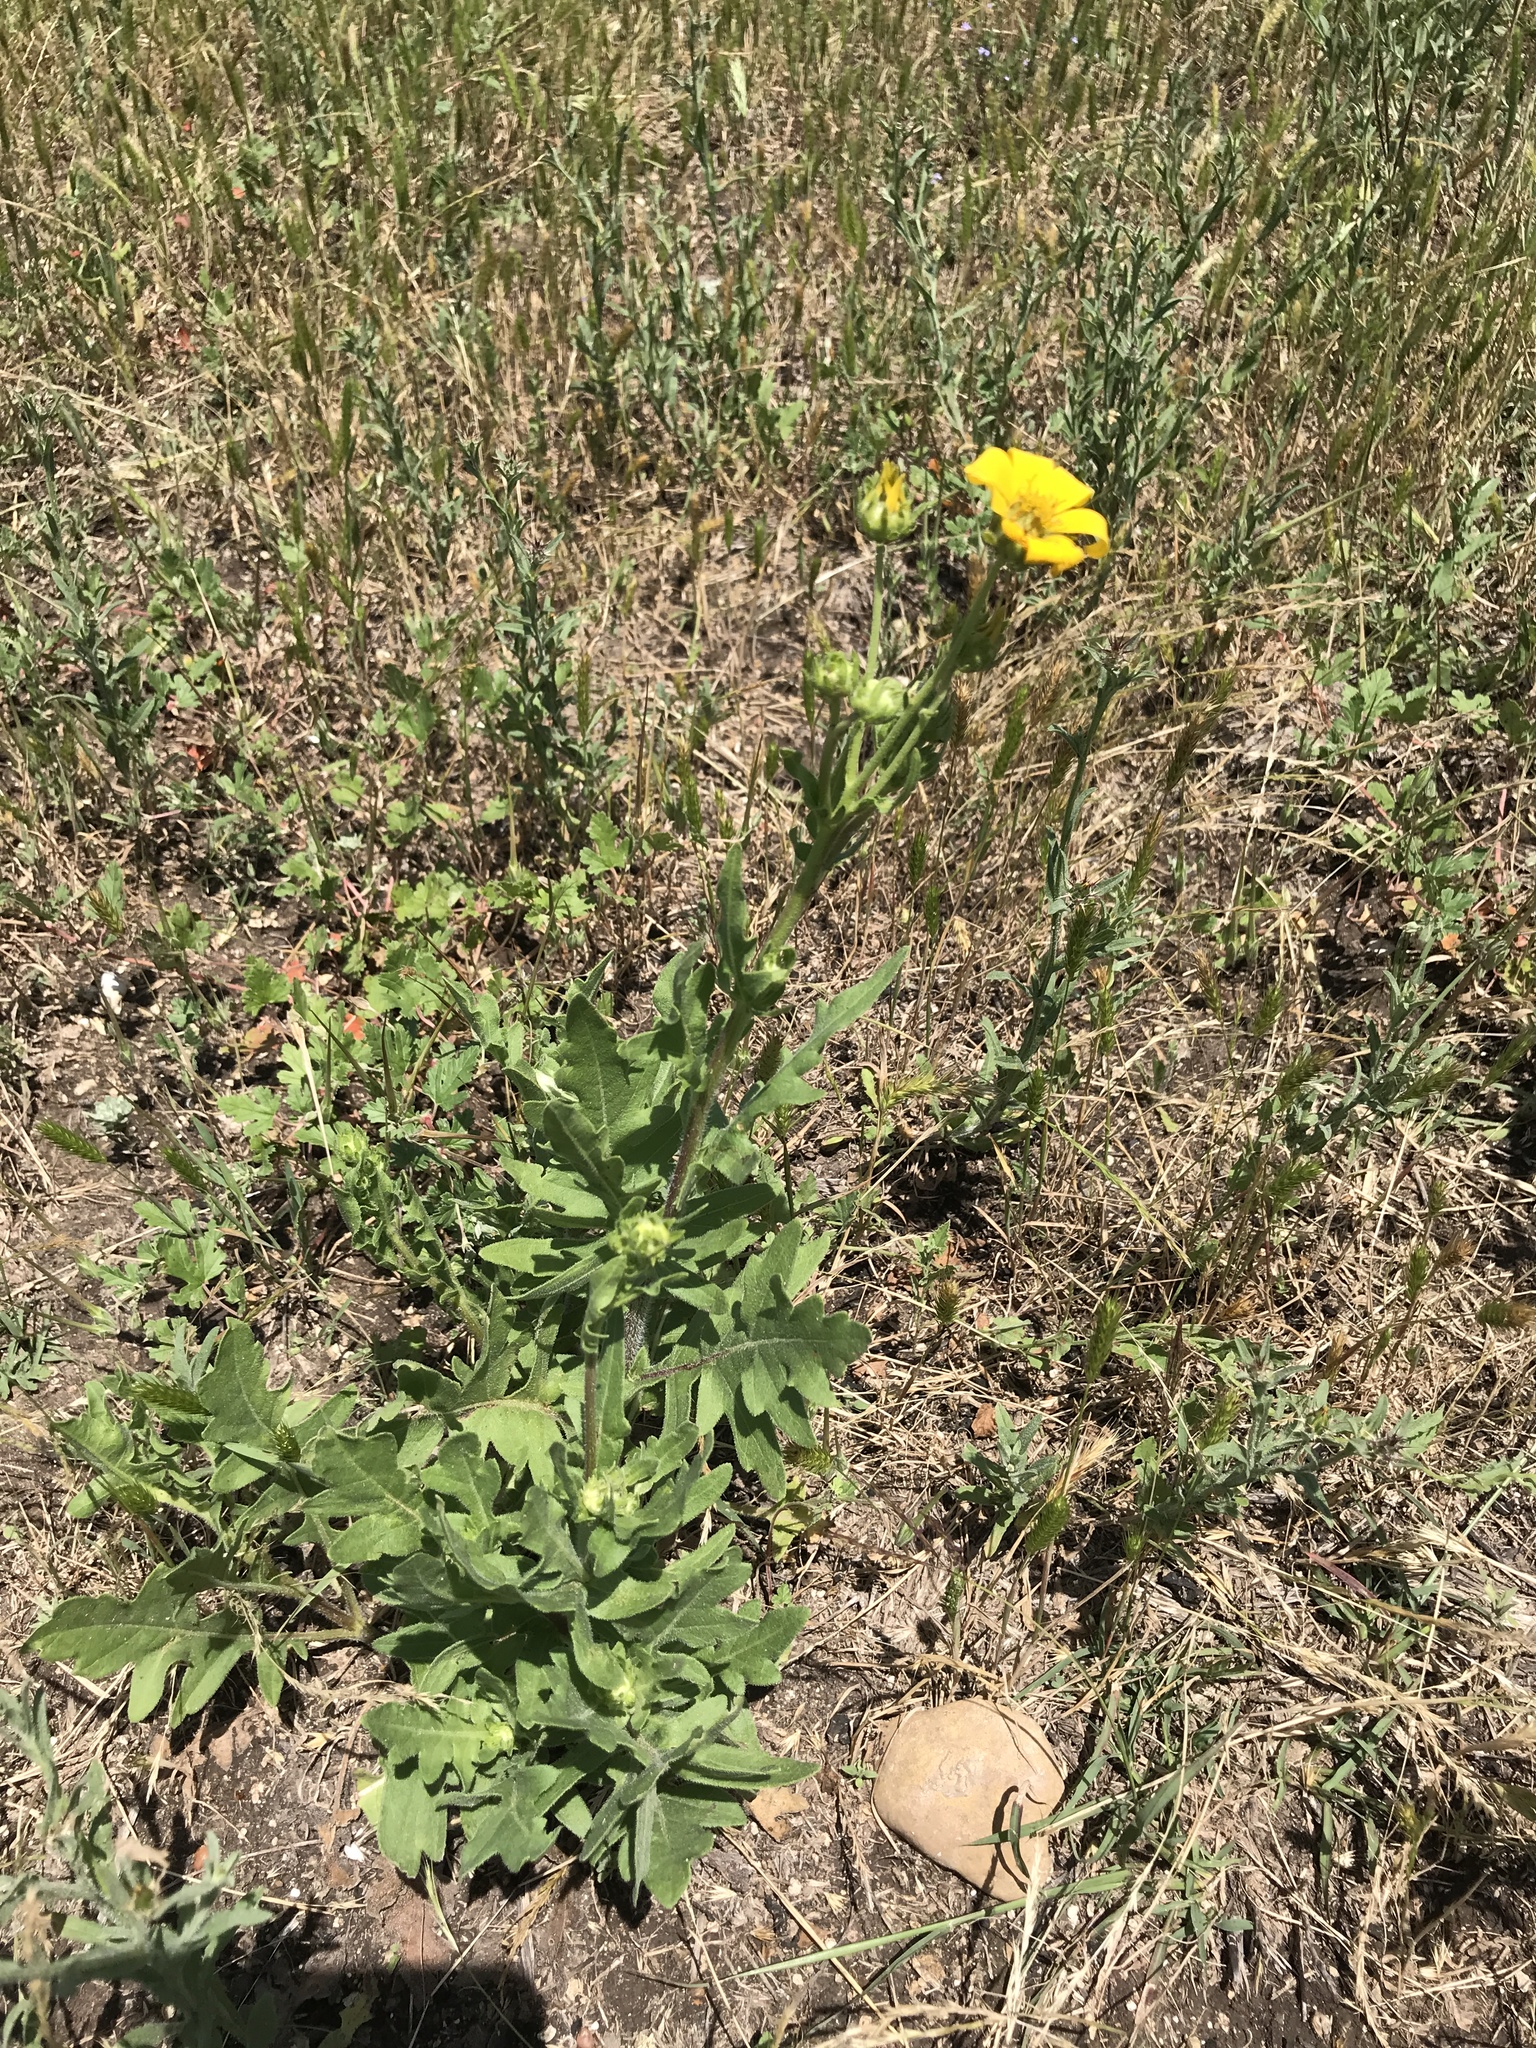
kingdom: Plantae
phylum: Tracheophyta
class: Magnoliopsida
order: Asterales
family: Asteraceae
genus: Engelmannia
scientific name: Engelmannia peristenia
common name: Engelmann's daisy
